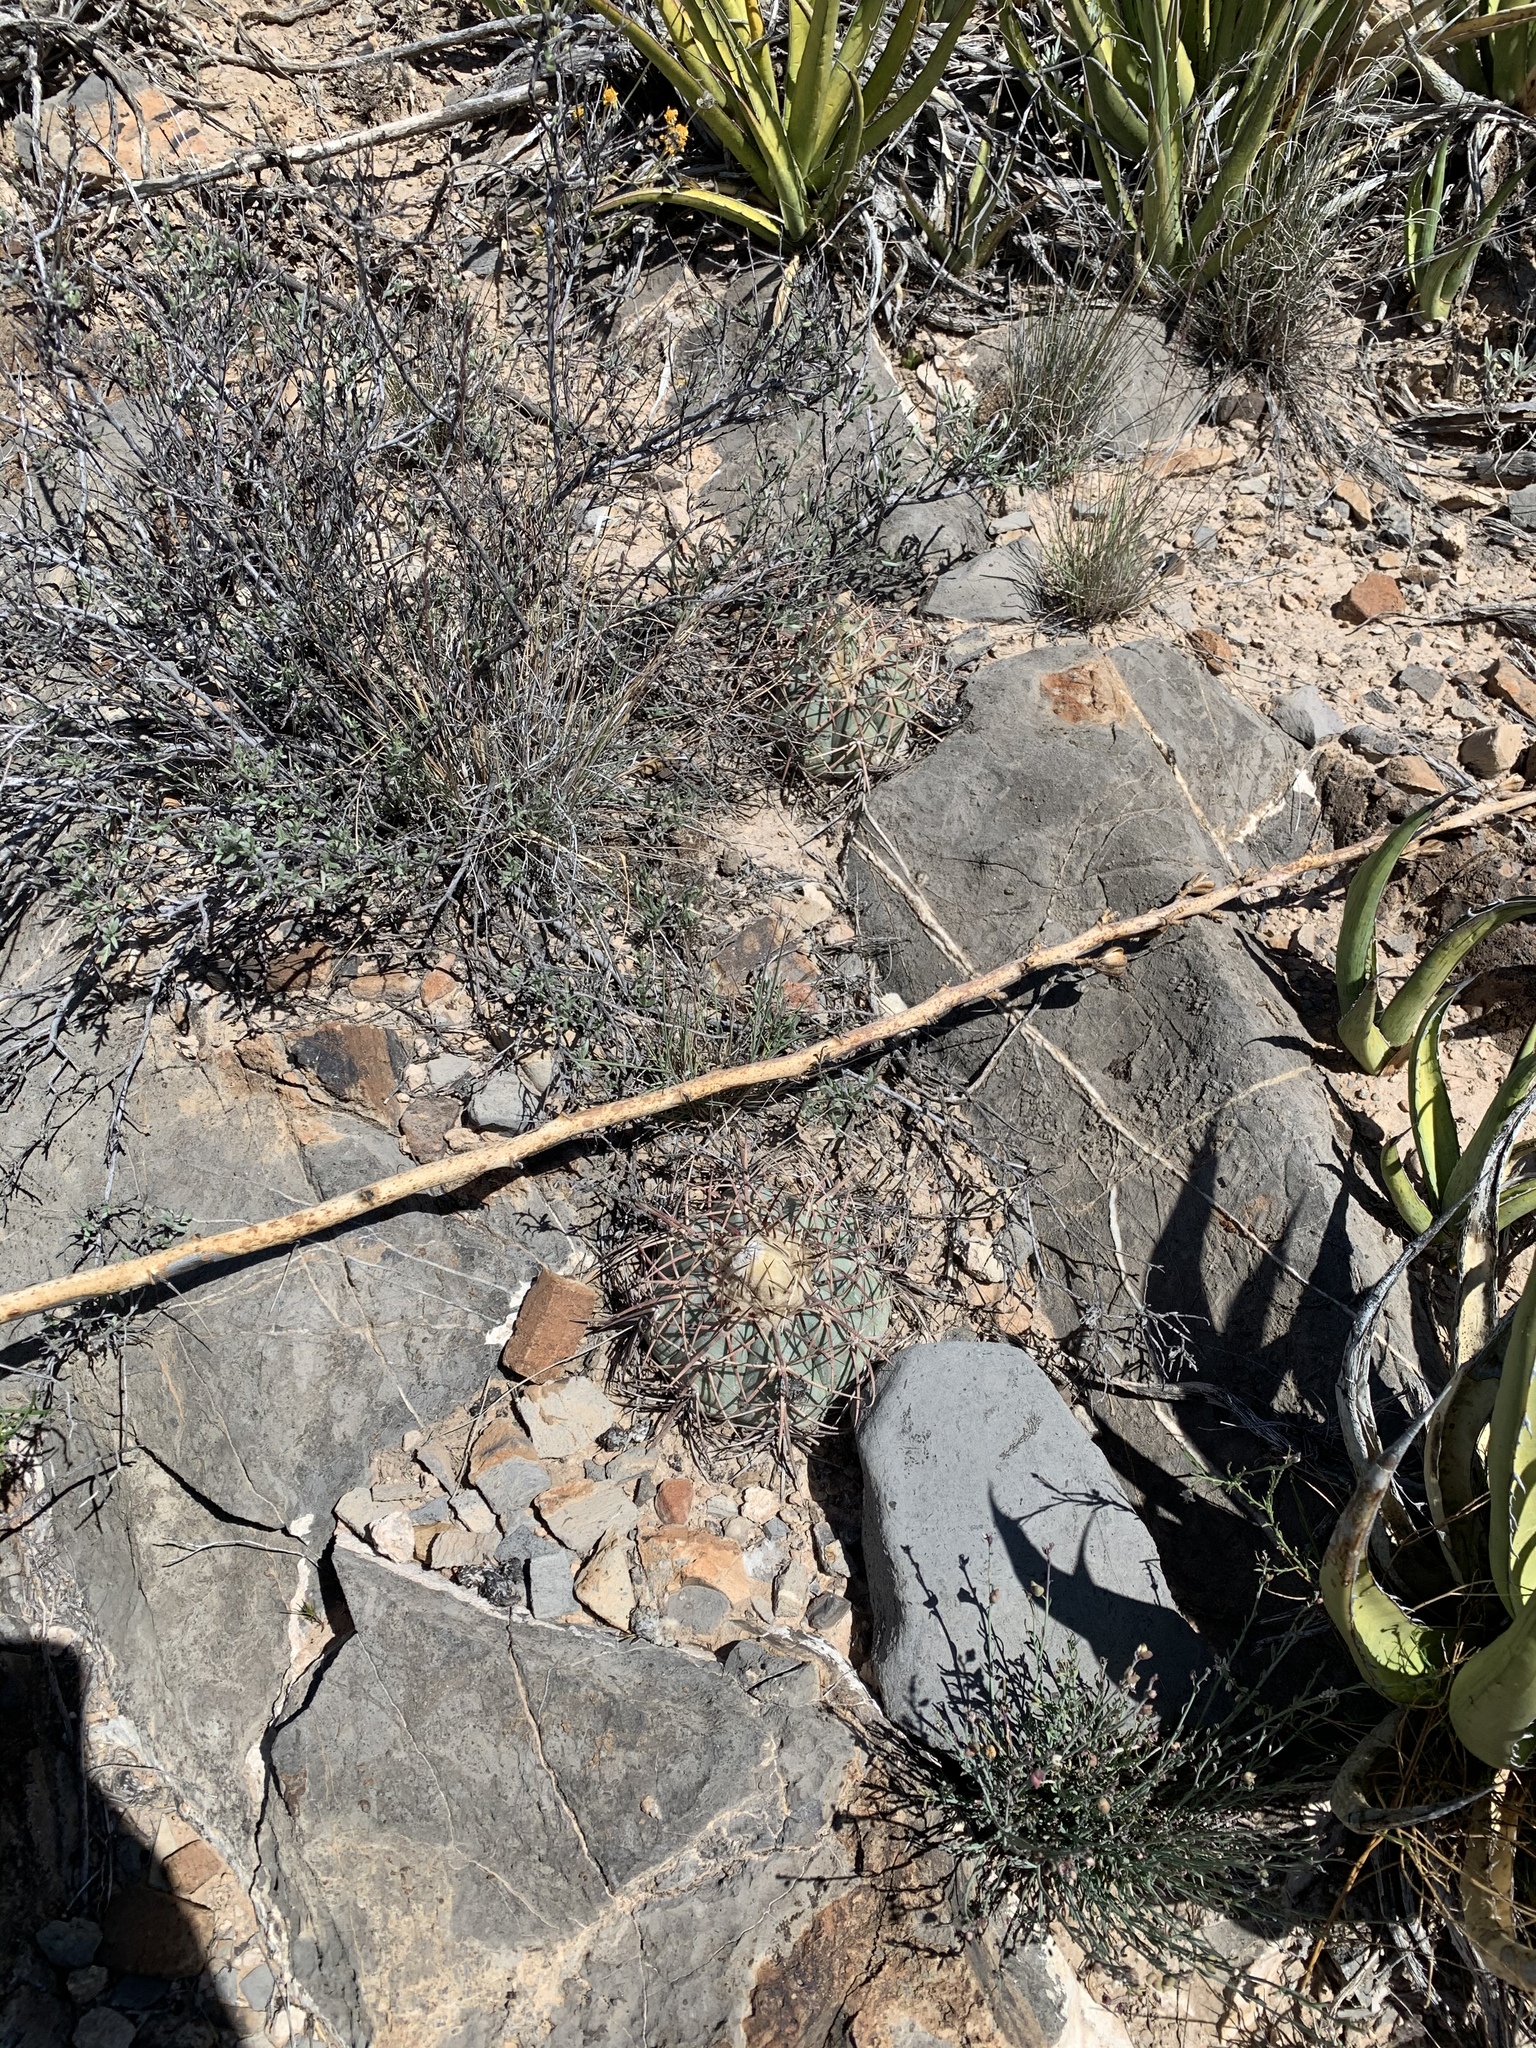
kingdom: Plantae
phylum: Tracheophyta
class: Magnoliopsida
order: Caryophyllales
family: Cactaceae
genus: Echinocactus
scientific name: Echinocactus horizonthalonius
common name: Devilshead
